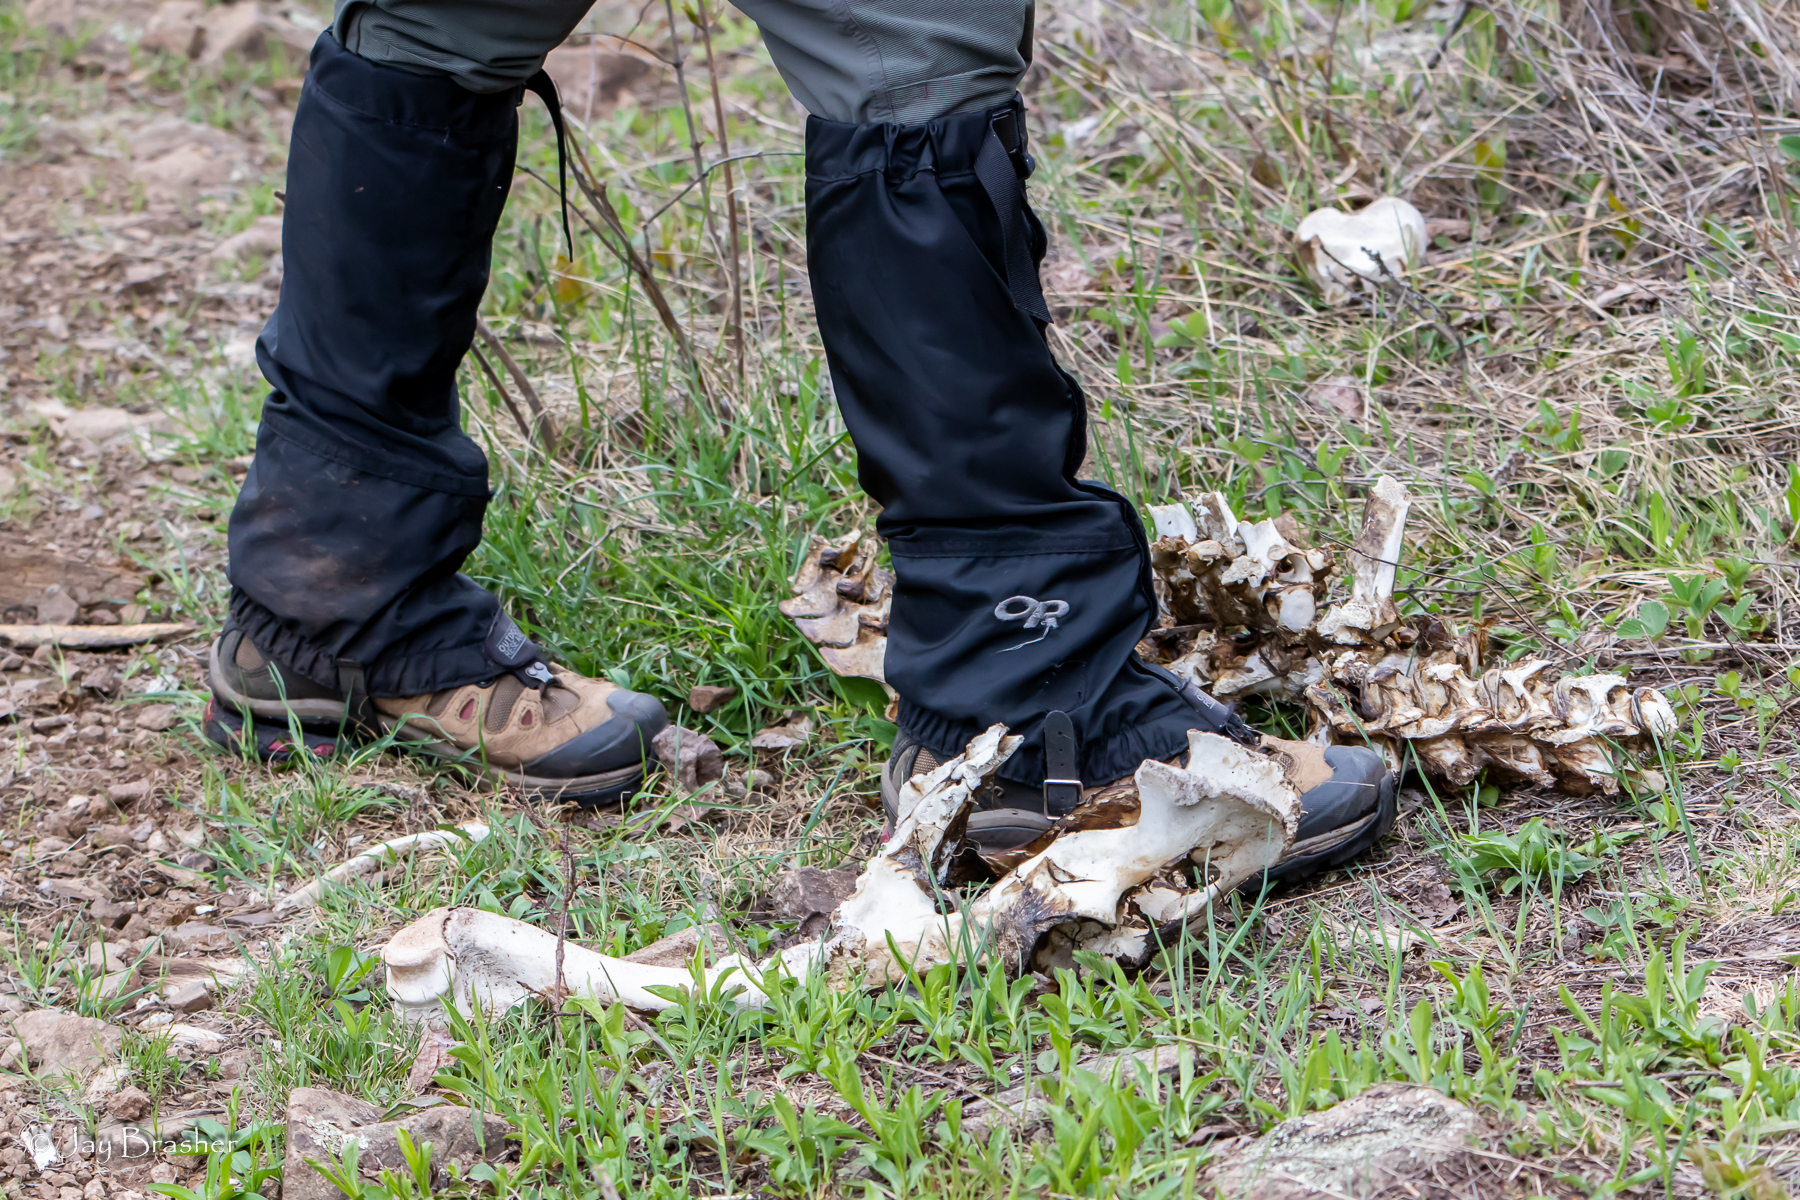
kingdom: Animalia
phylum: Chordata
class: Mammalia
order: Artiodactyla
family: Cervidae
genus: Alces
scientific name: Alces alces
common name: Moose
